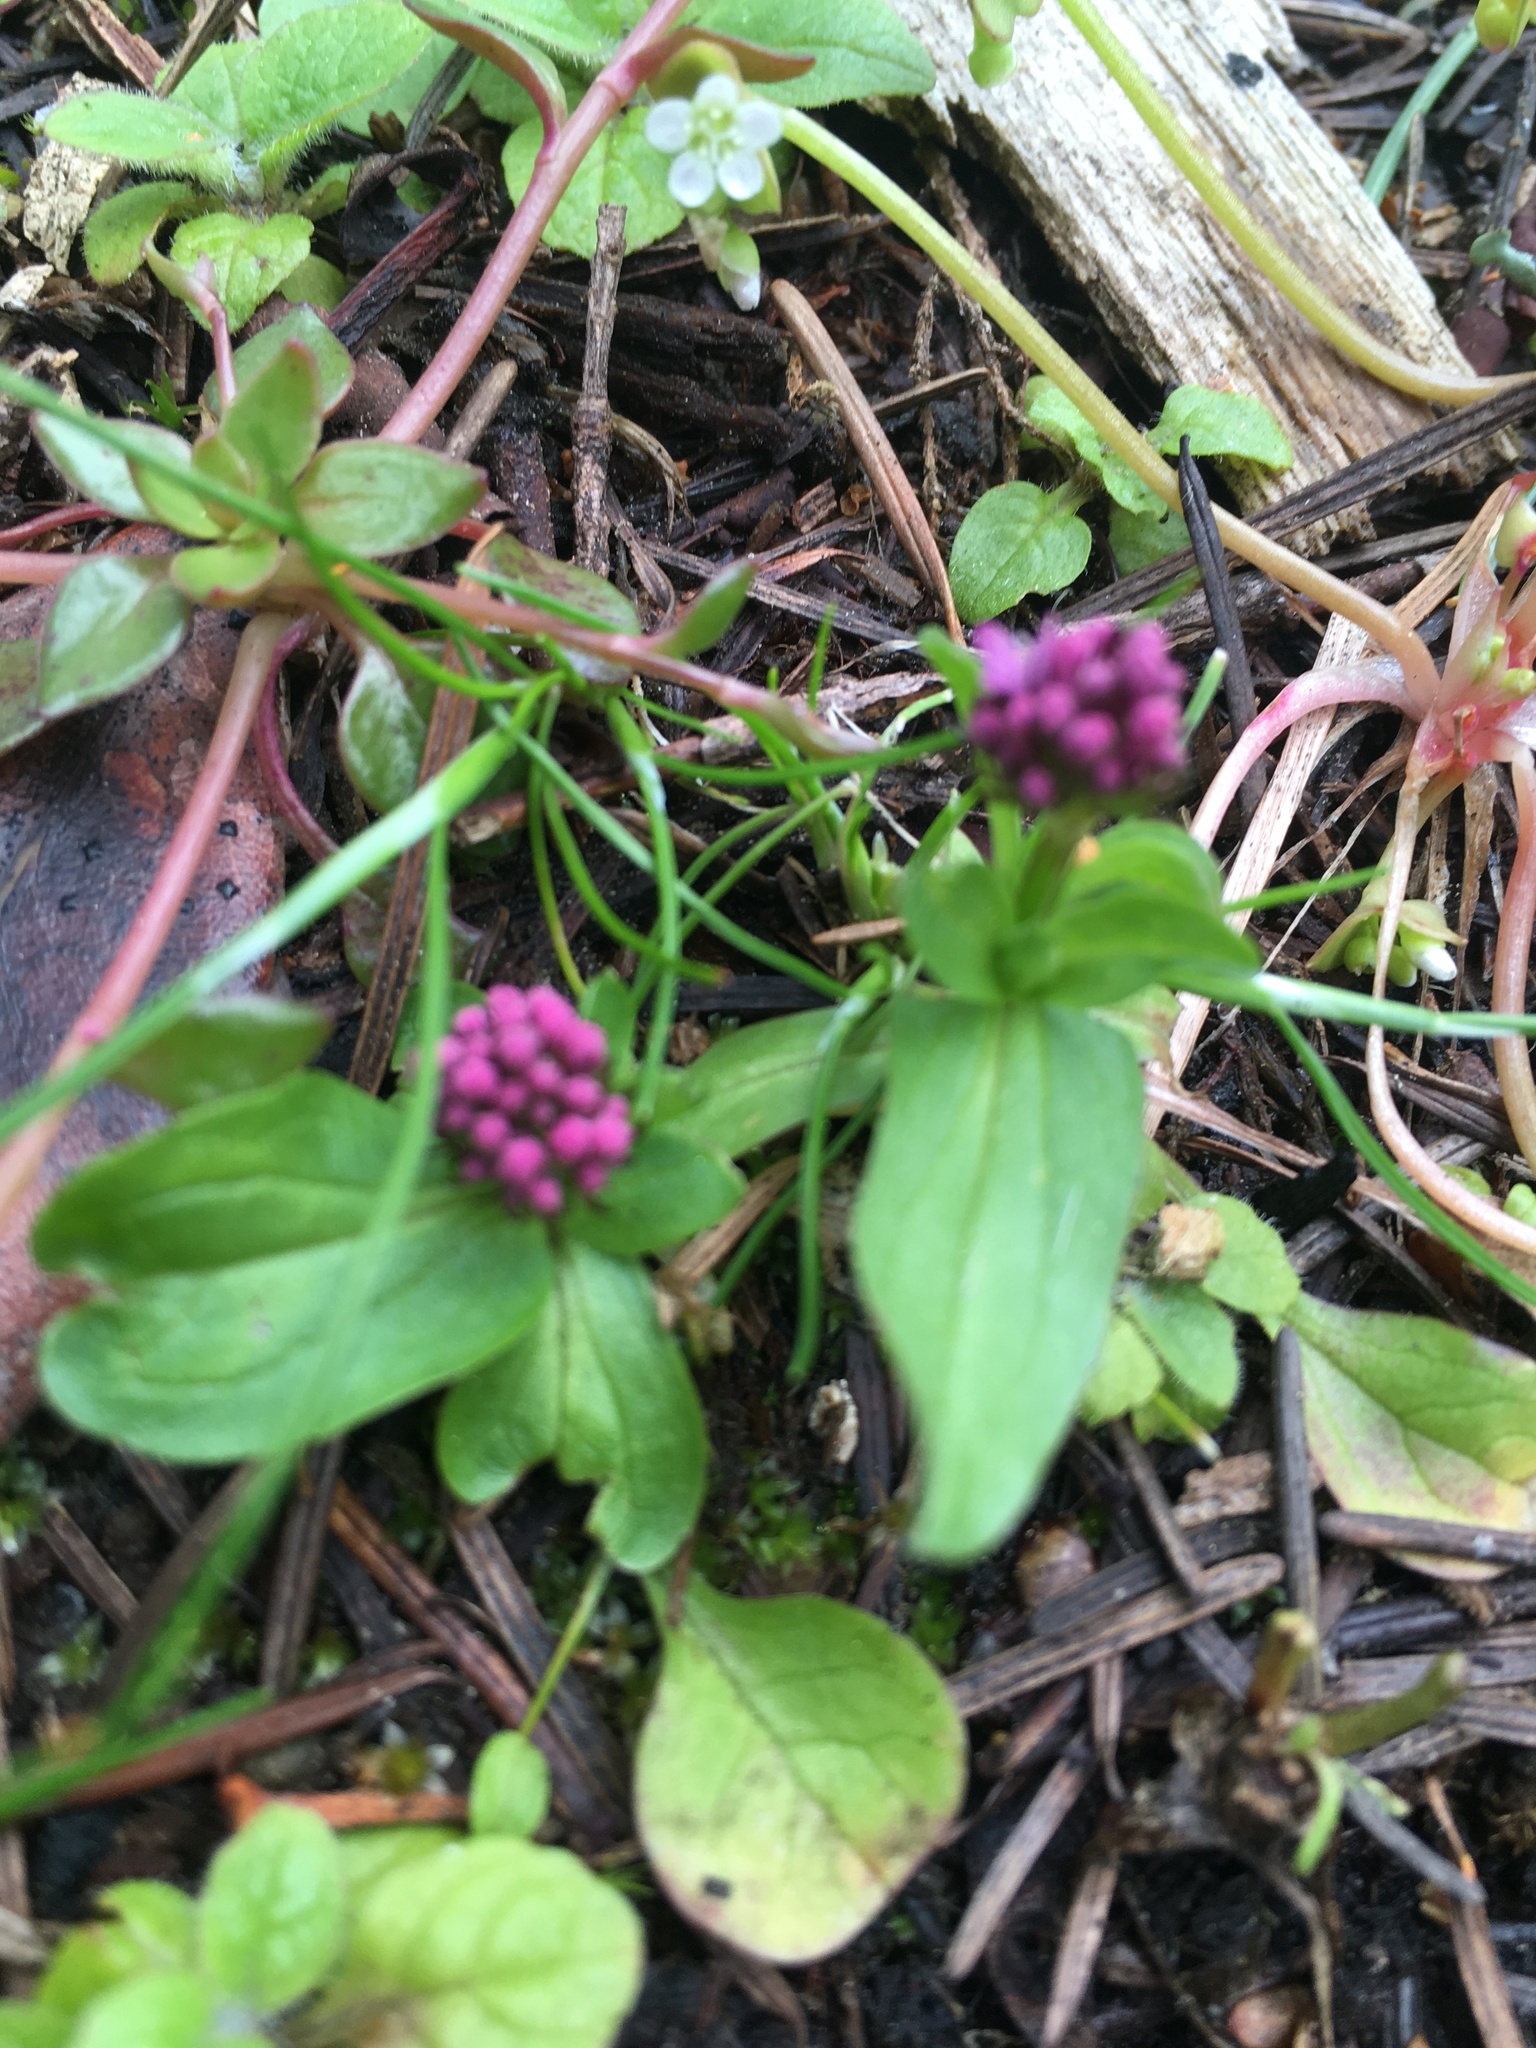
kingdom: Plantae
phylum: Tracheophyta
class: Magnoliopsida
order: Dipsacales
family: Caprifoliaceae
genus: Plectritis
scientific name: Plectritis congesta
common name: Pink plectritis
